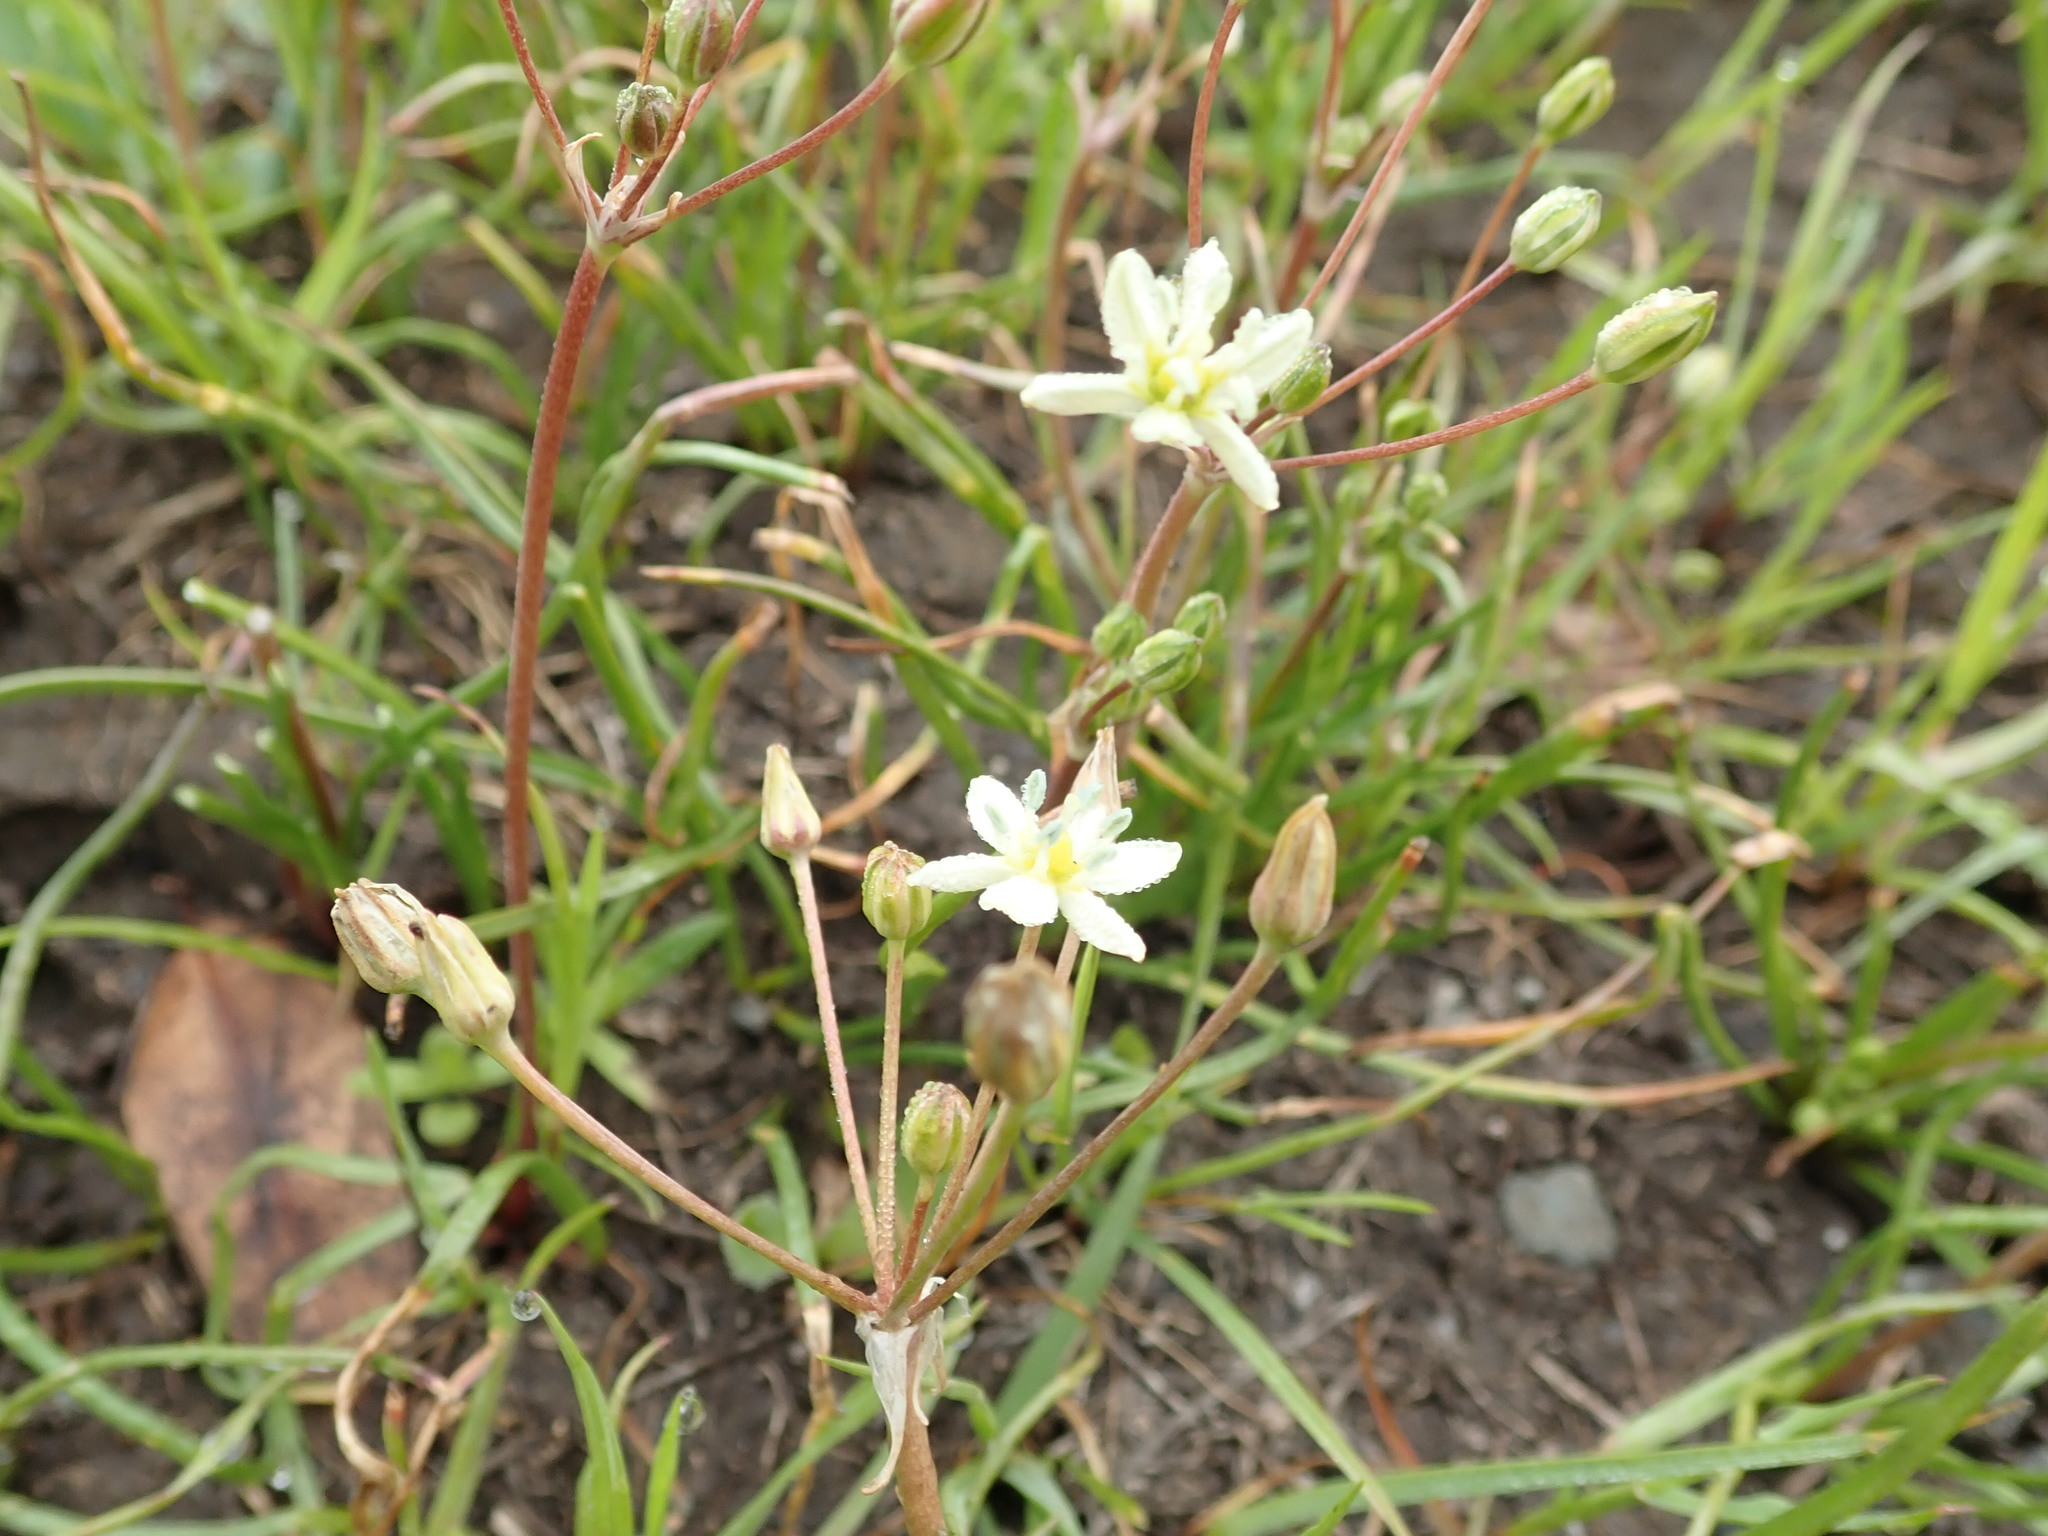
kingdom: Plantae
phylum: Tracheophyta
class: Liliopsida
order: Asparagales
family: Asparagaceae
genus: Muilla
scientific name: Muilla maritima
